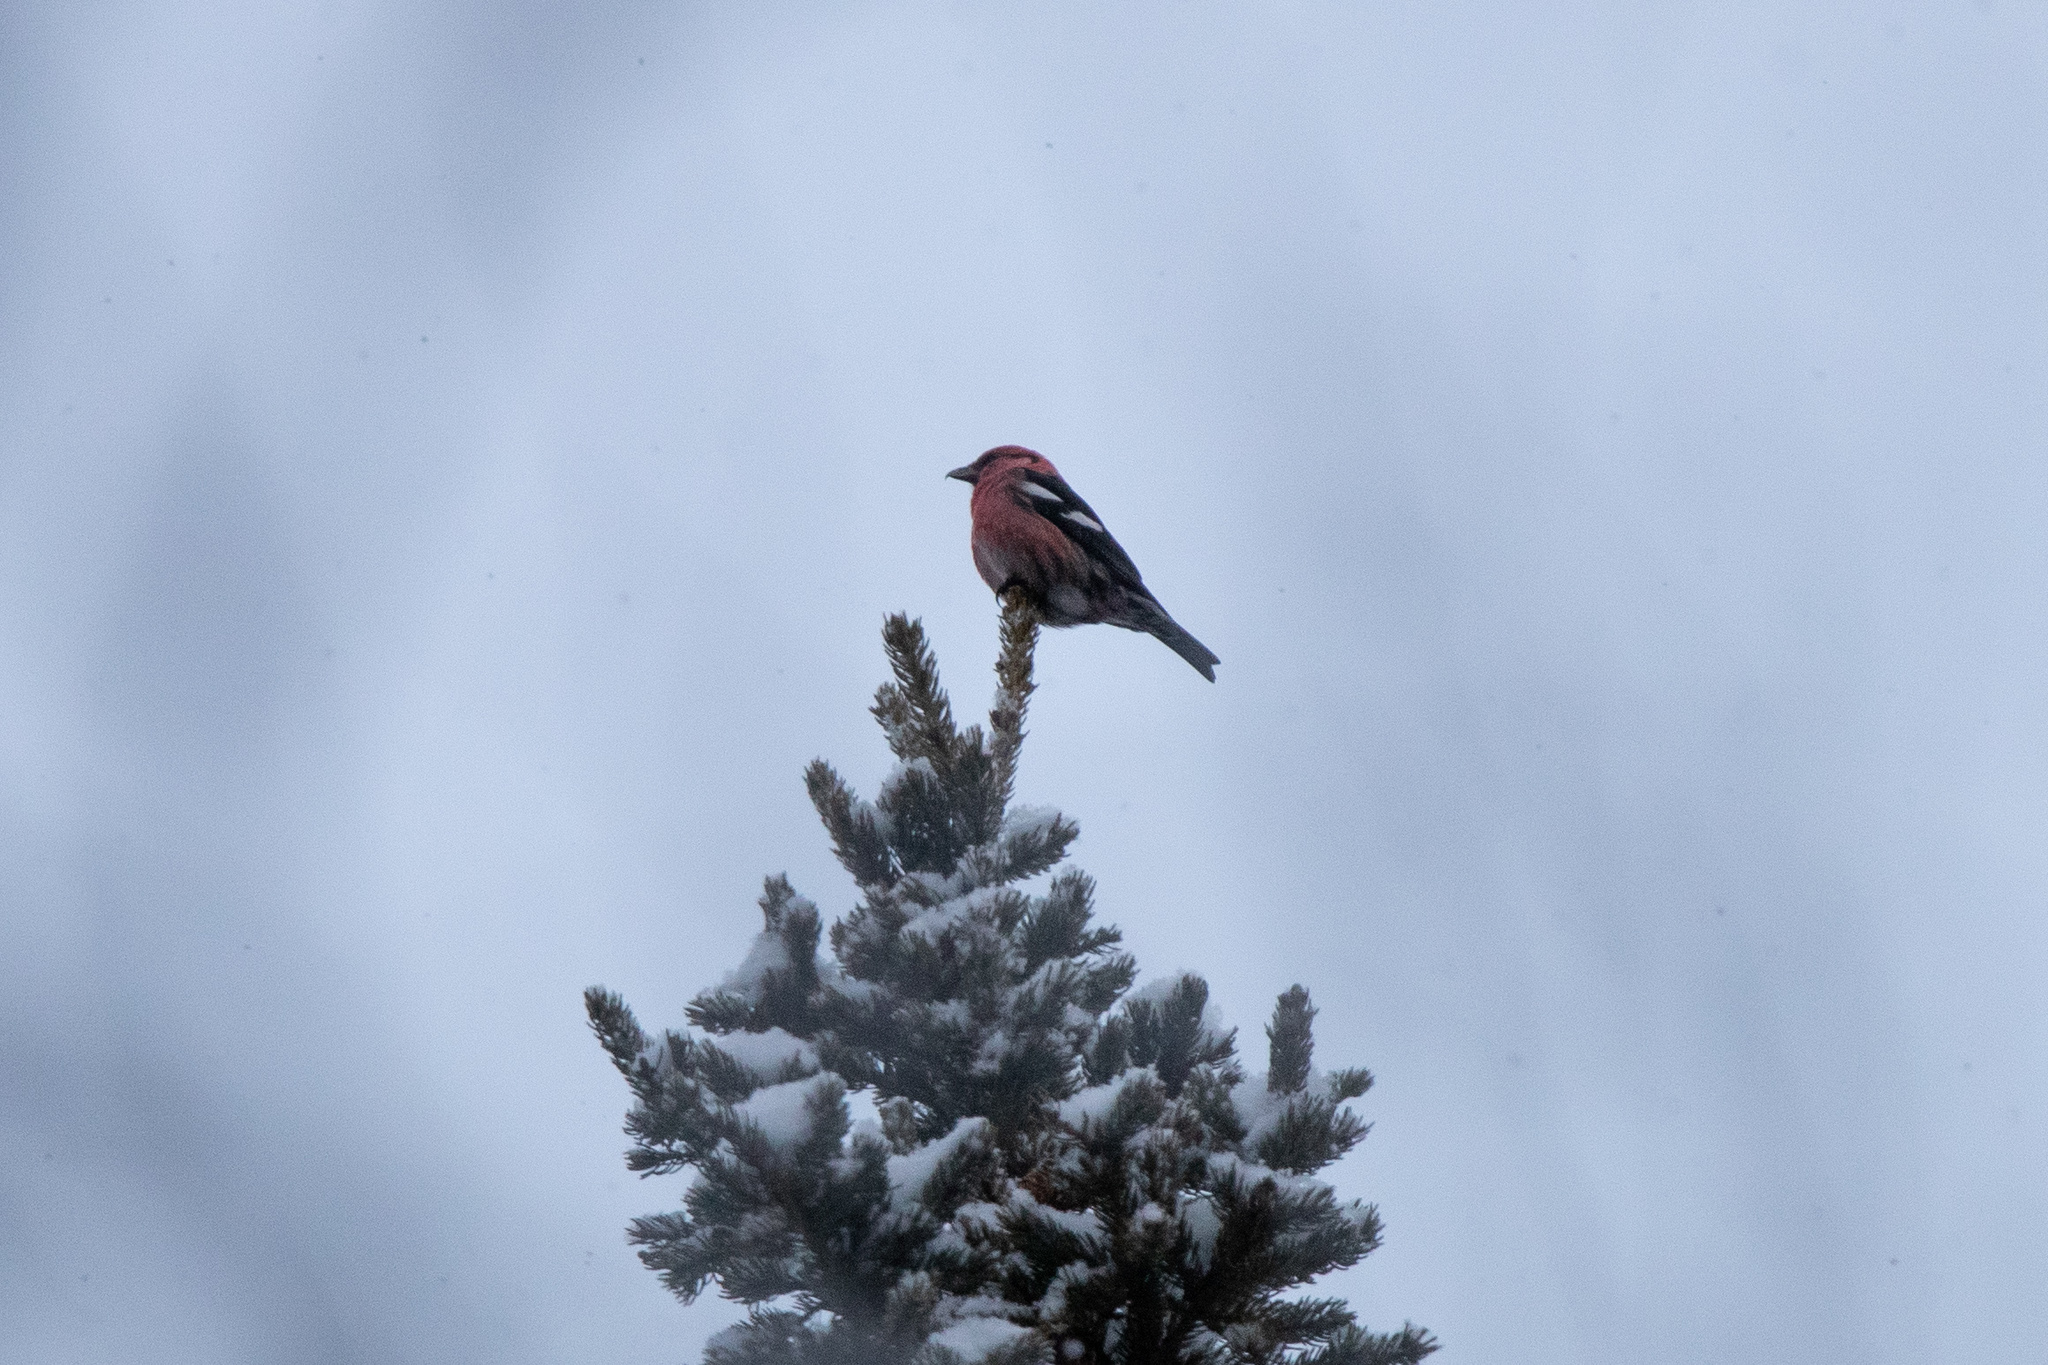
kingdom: Animalia
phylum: Chordata
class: Aves
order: Passeriformes
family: Fringillidae
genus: Loxia
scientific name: Loxia leucoptera
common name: Two-barred crossbill
